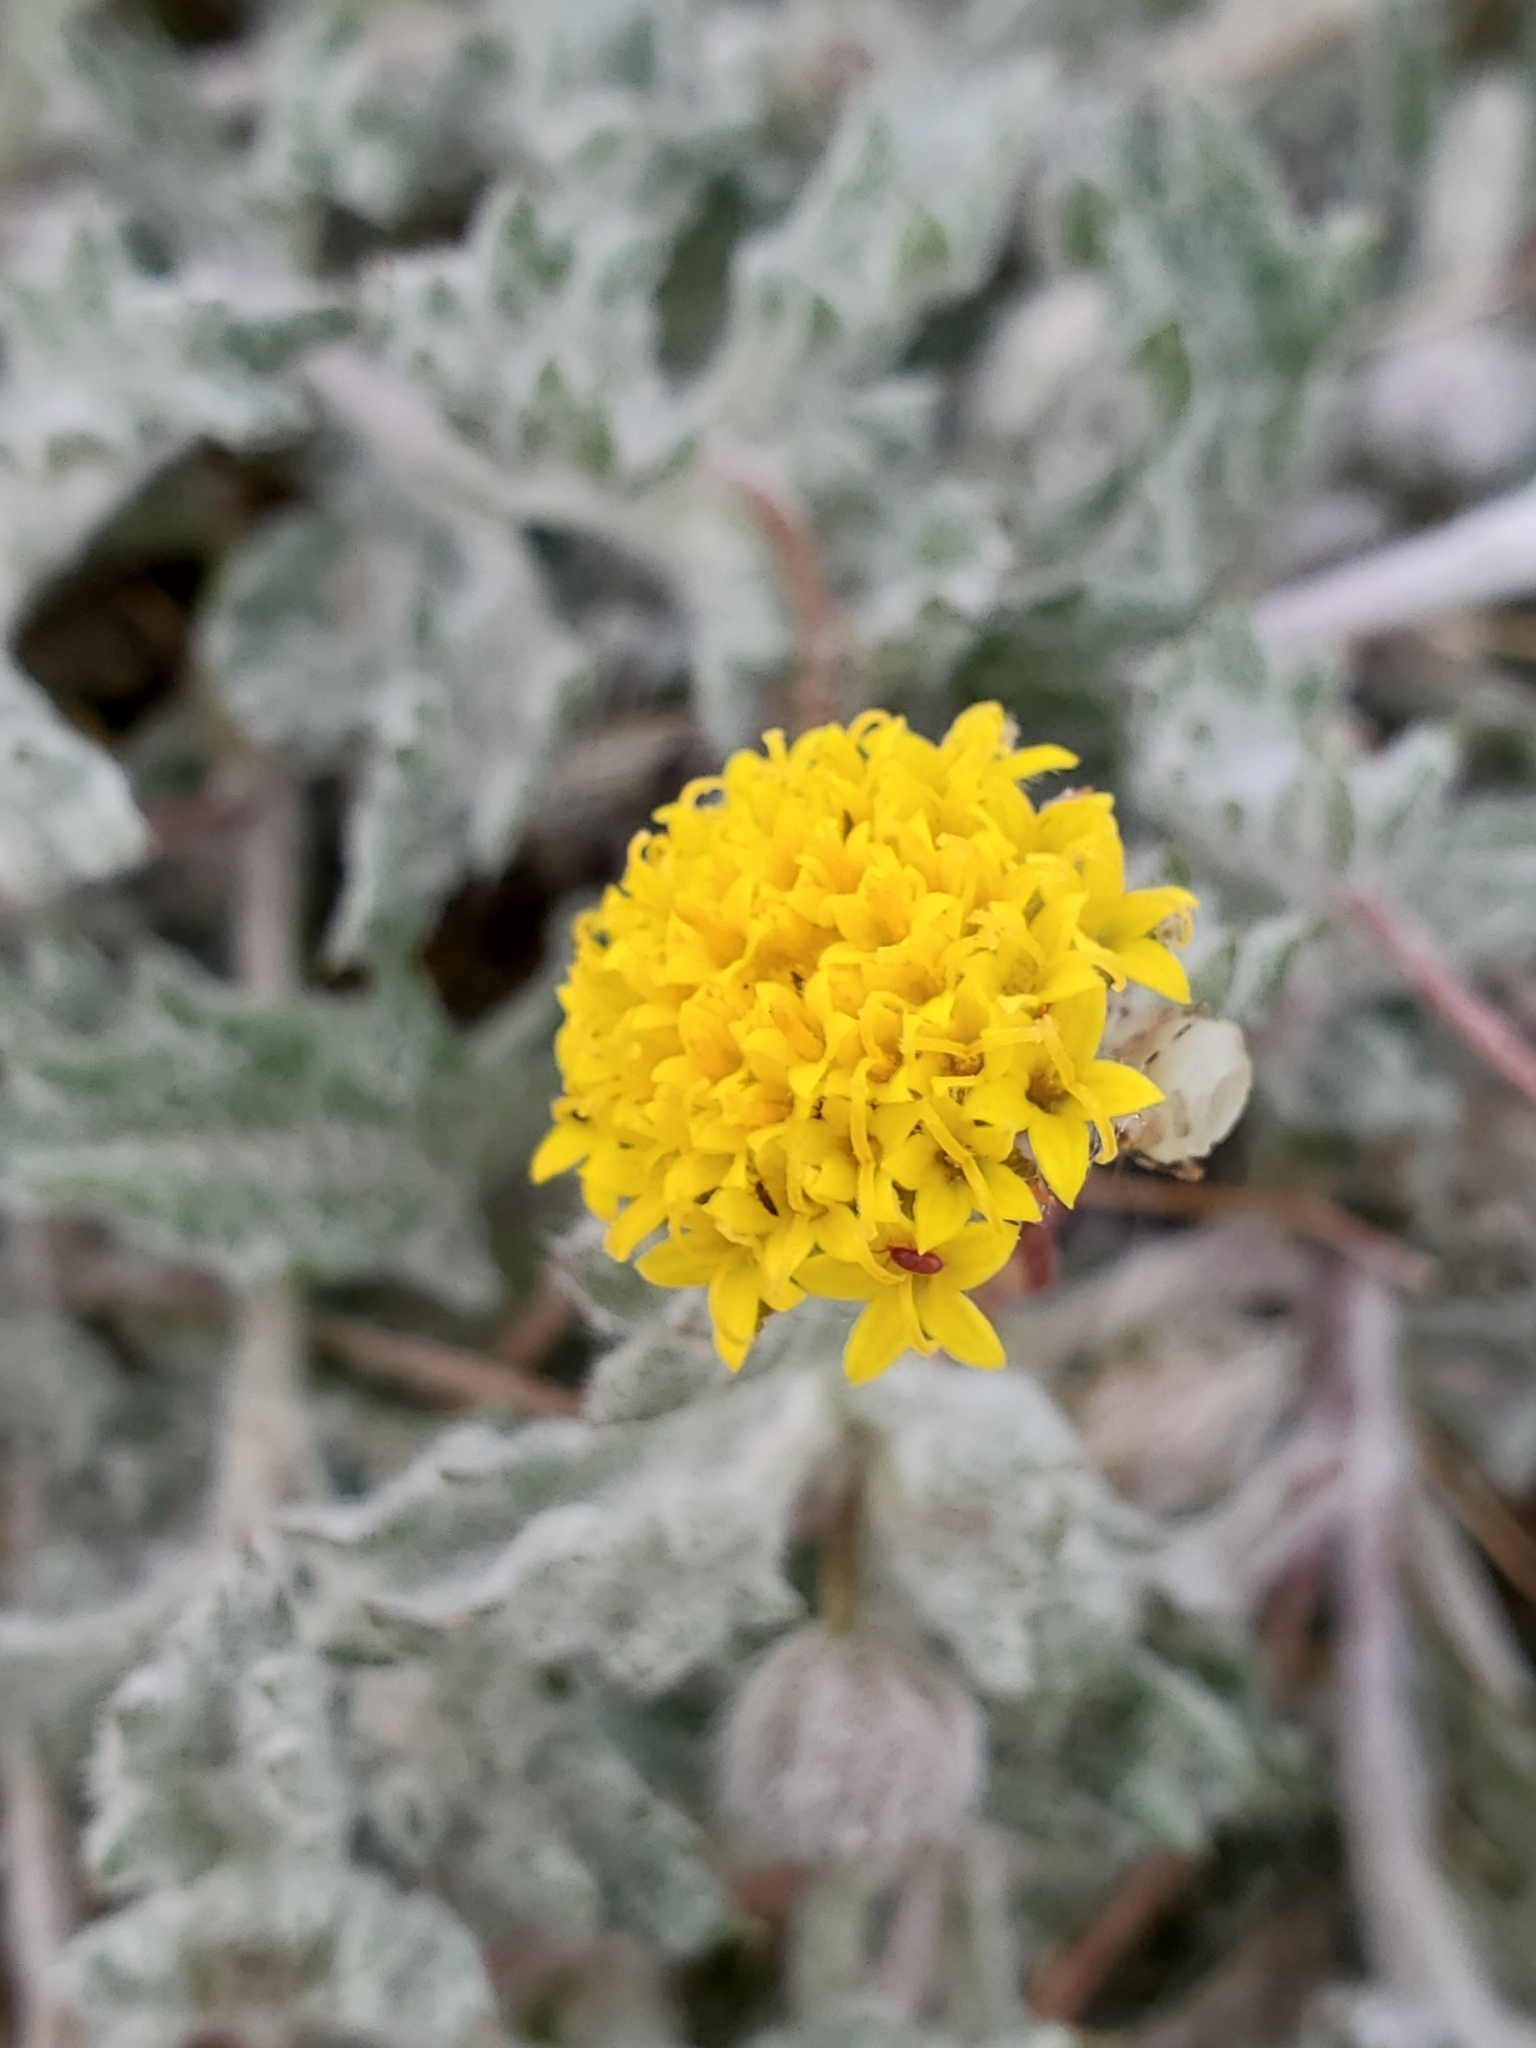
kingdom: Plantae
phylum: Tracheophyta
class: Magnoliopsida
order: Asterales
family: Asteraceae
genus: Trichoptilium
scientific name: Trichoptilium incisum
